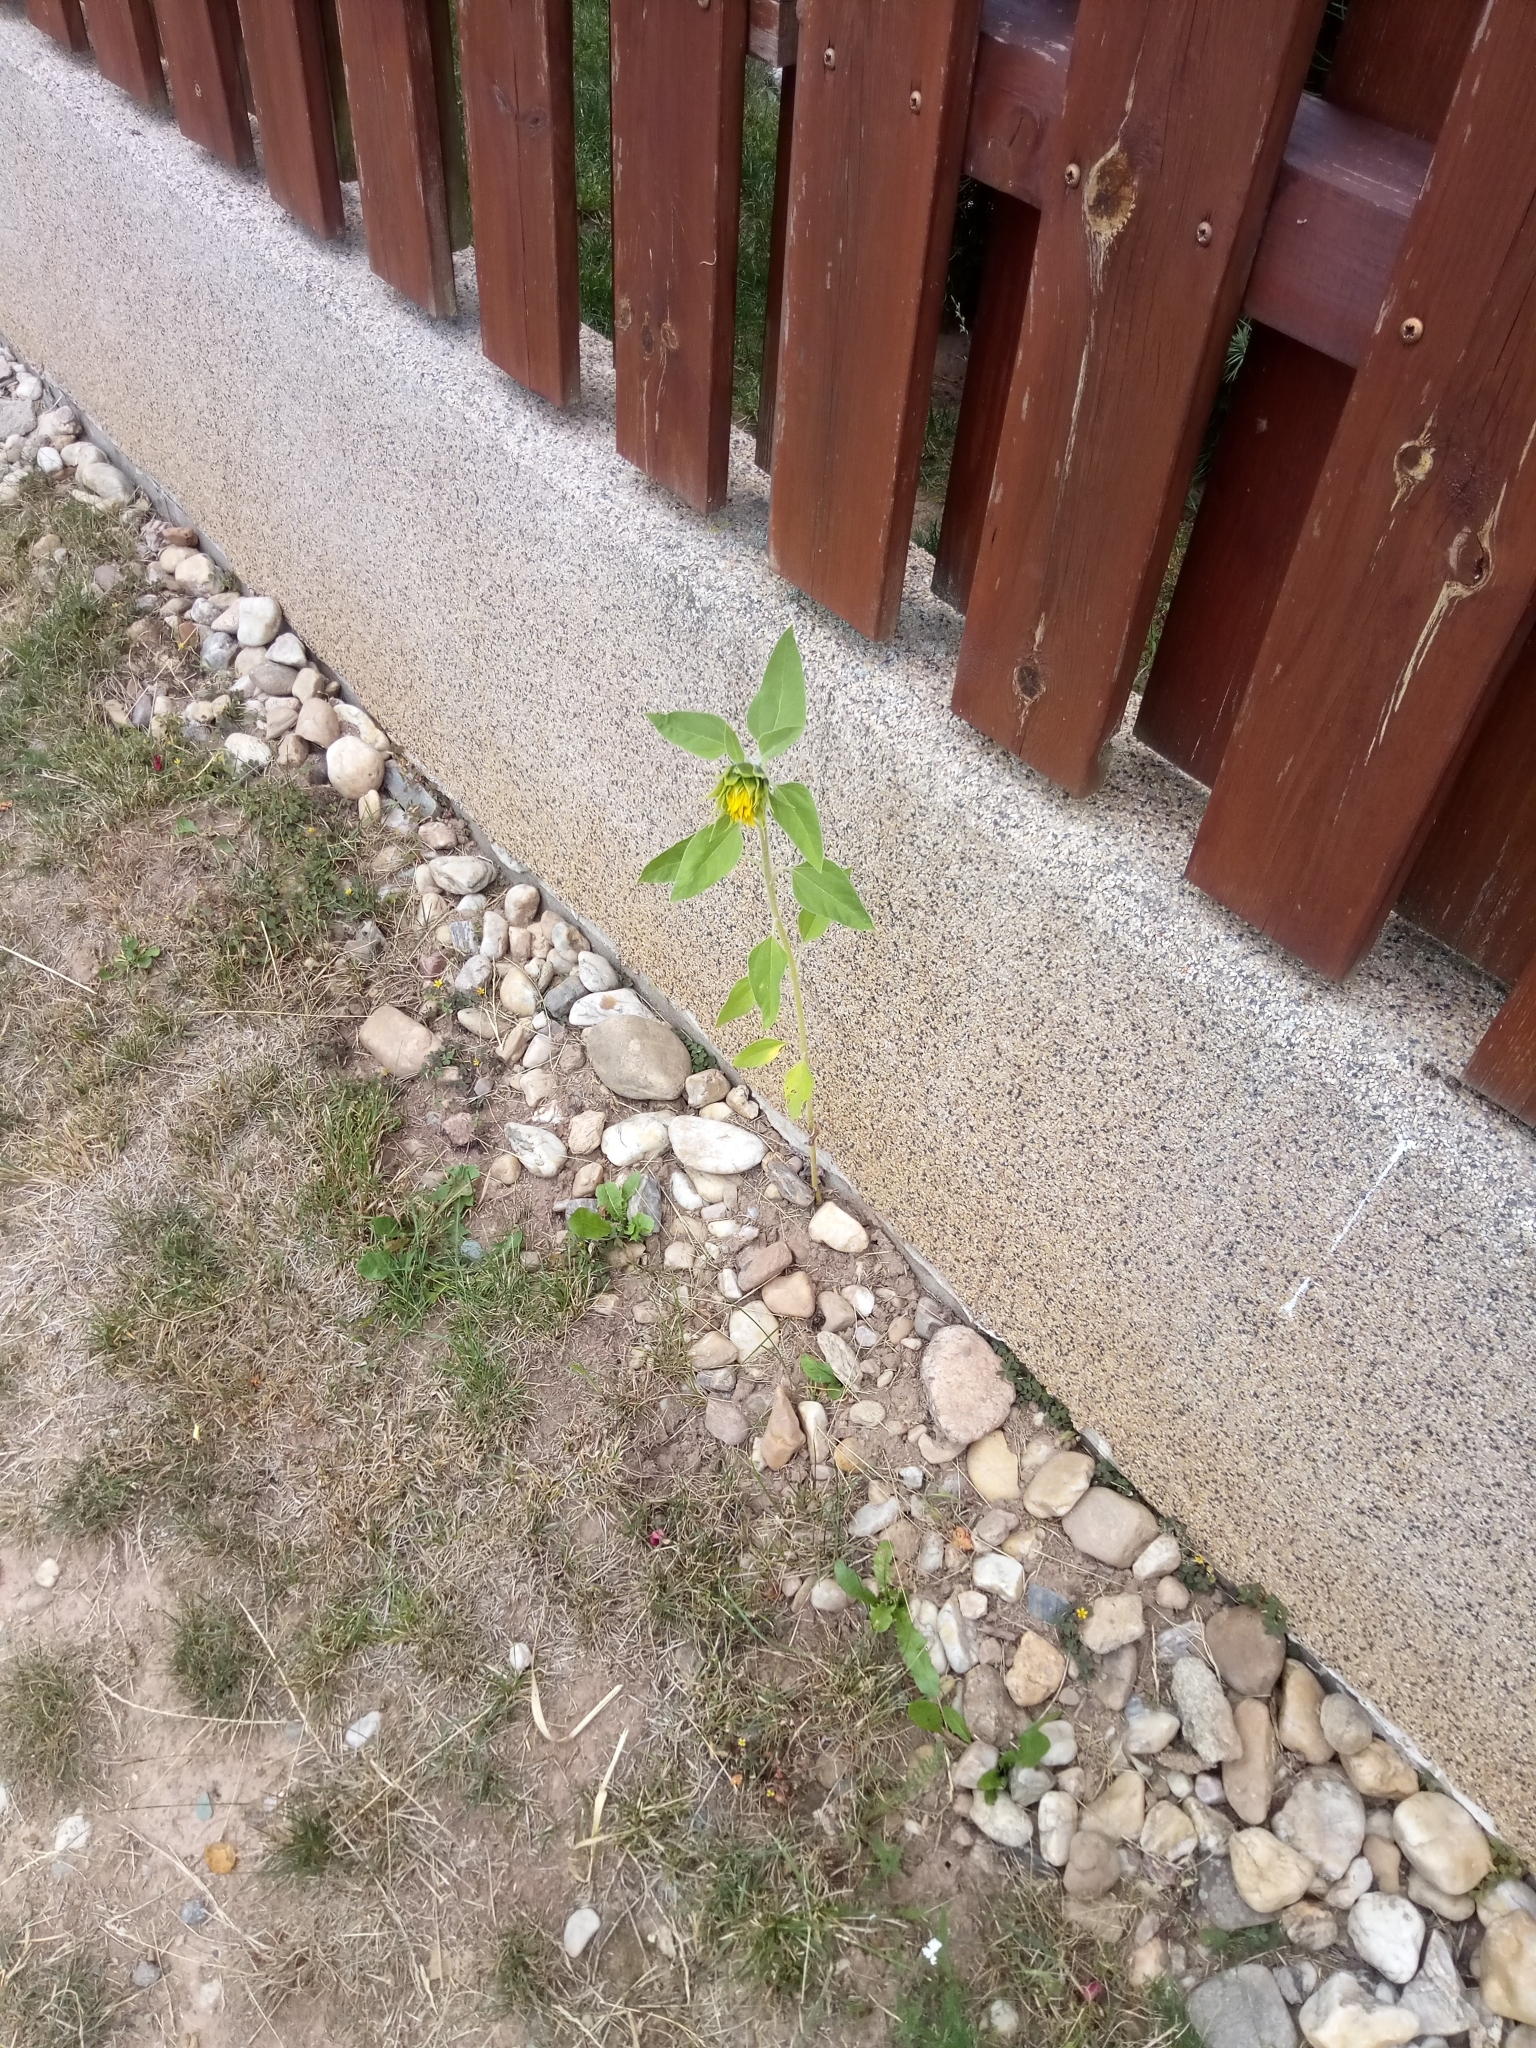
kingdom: Plantae
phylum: Tracheophyta
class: Magnoliopsida
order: Asterales
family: Asteraceae
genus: Helianthus
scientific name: Helianthus annuus
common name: Sunflower
